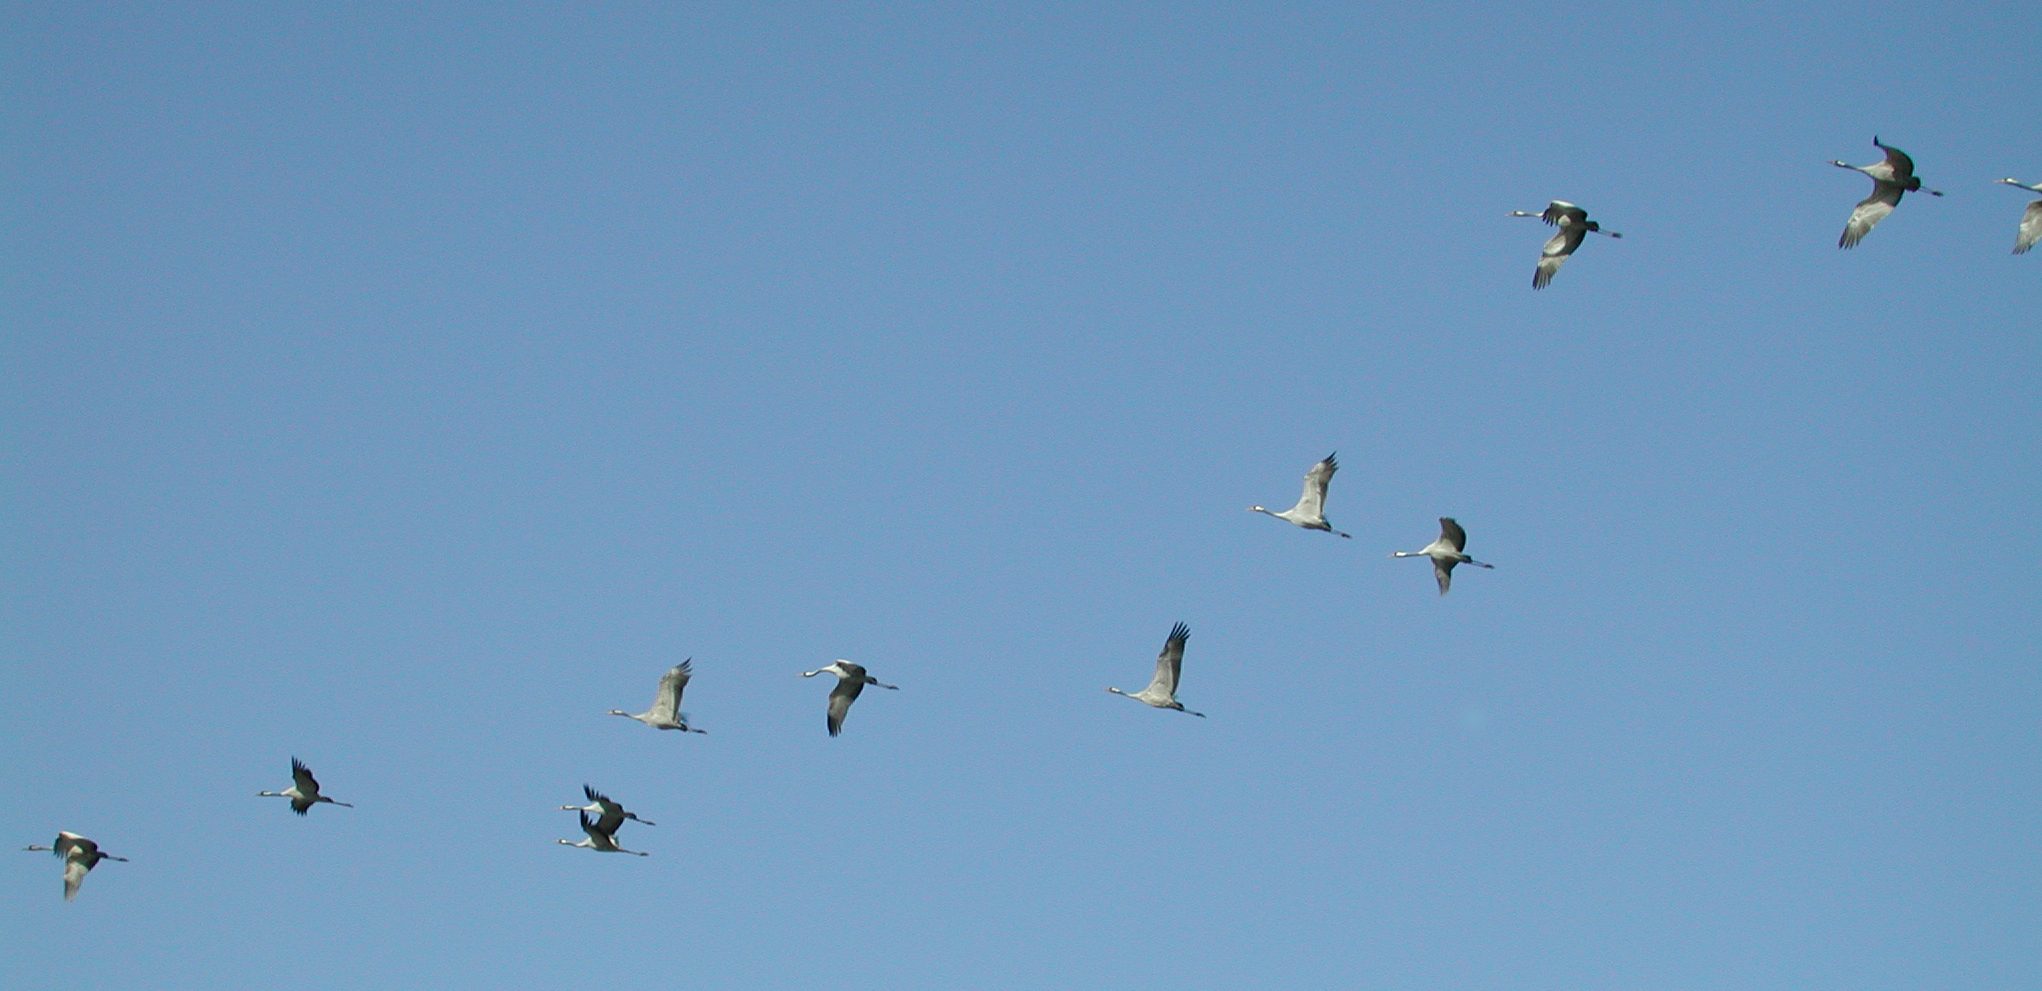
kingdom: Animalia
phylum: Chordata
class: Aves
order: Gruiformes
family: Gruidae
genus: Grus
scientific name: Grus grus
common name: Common crane
